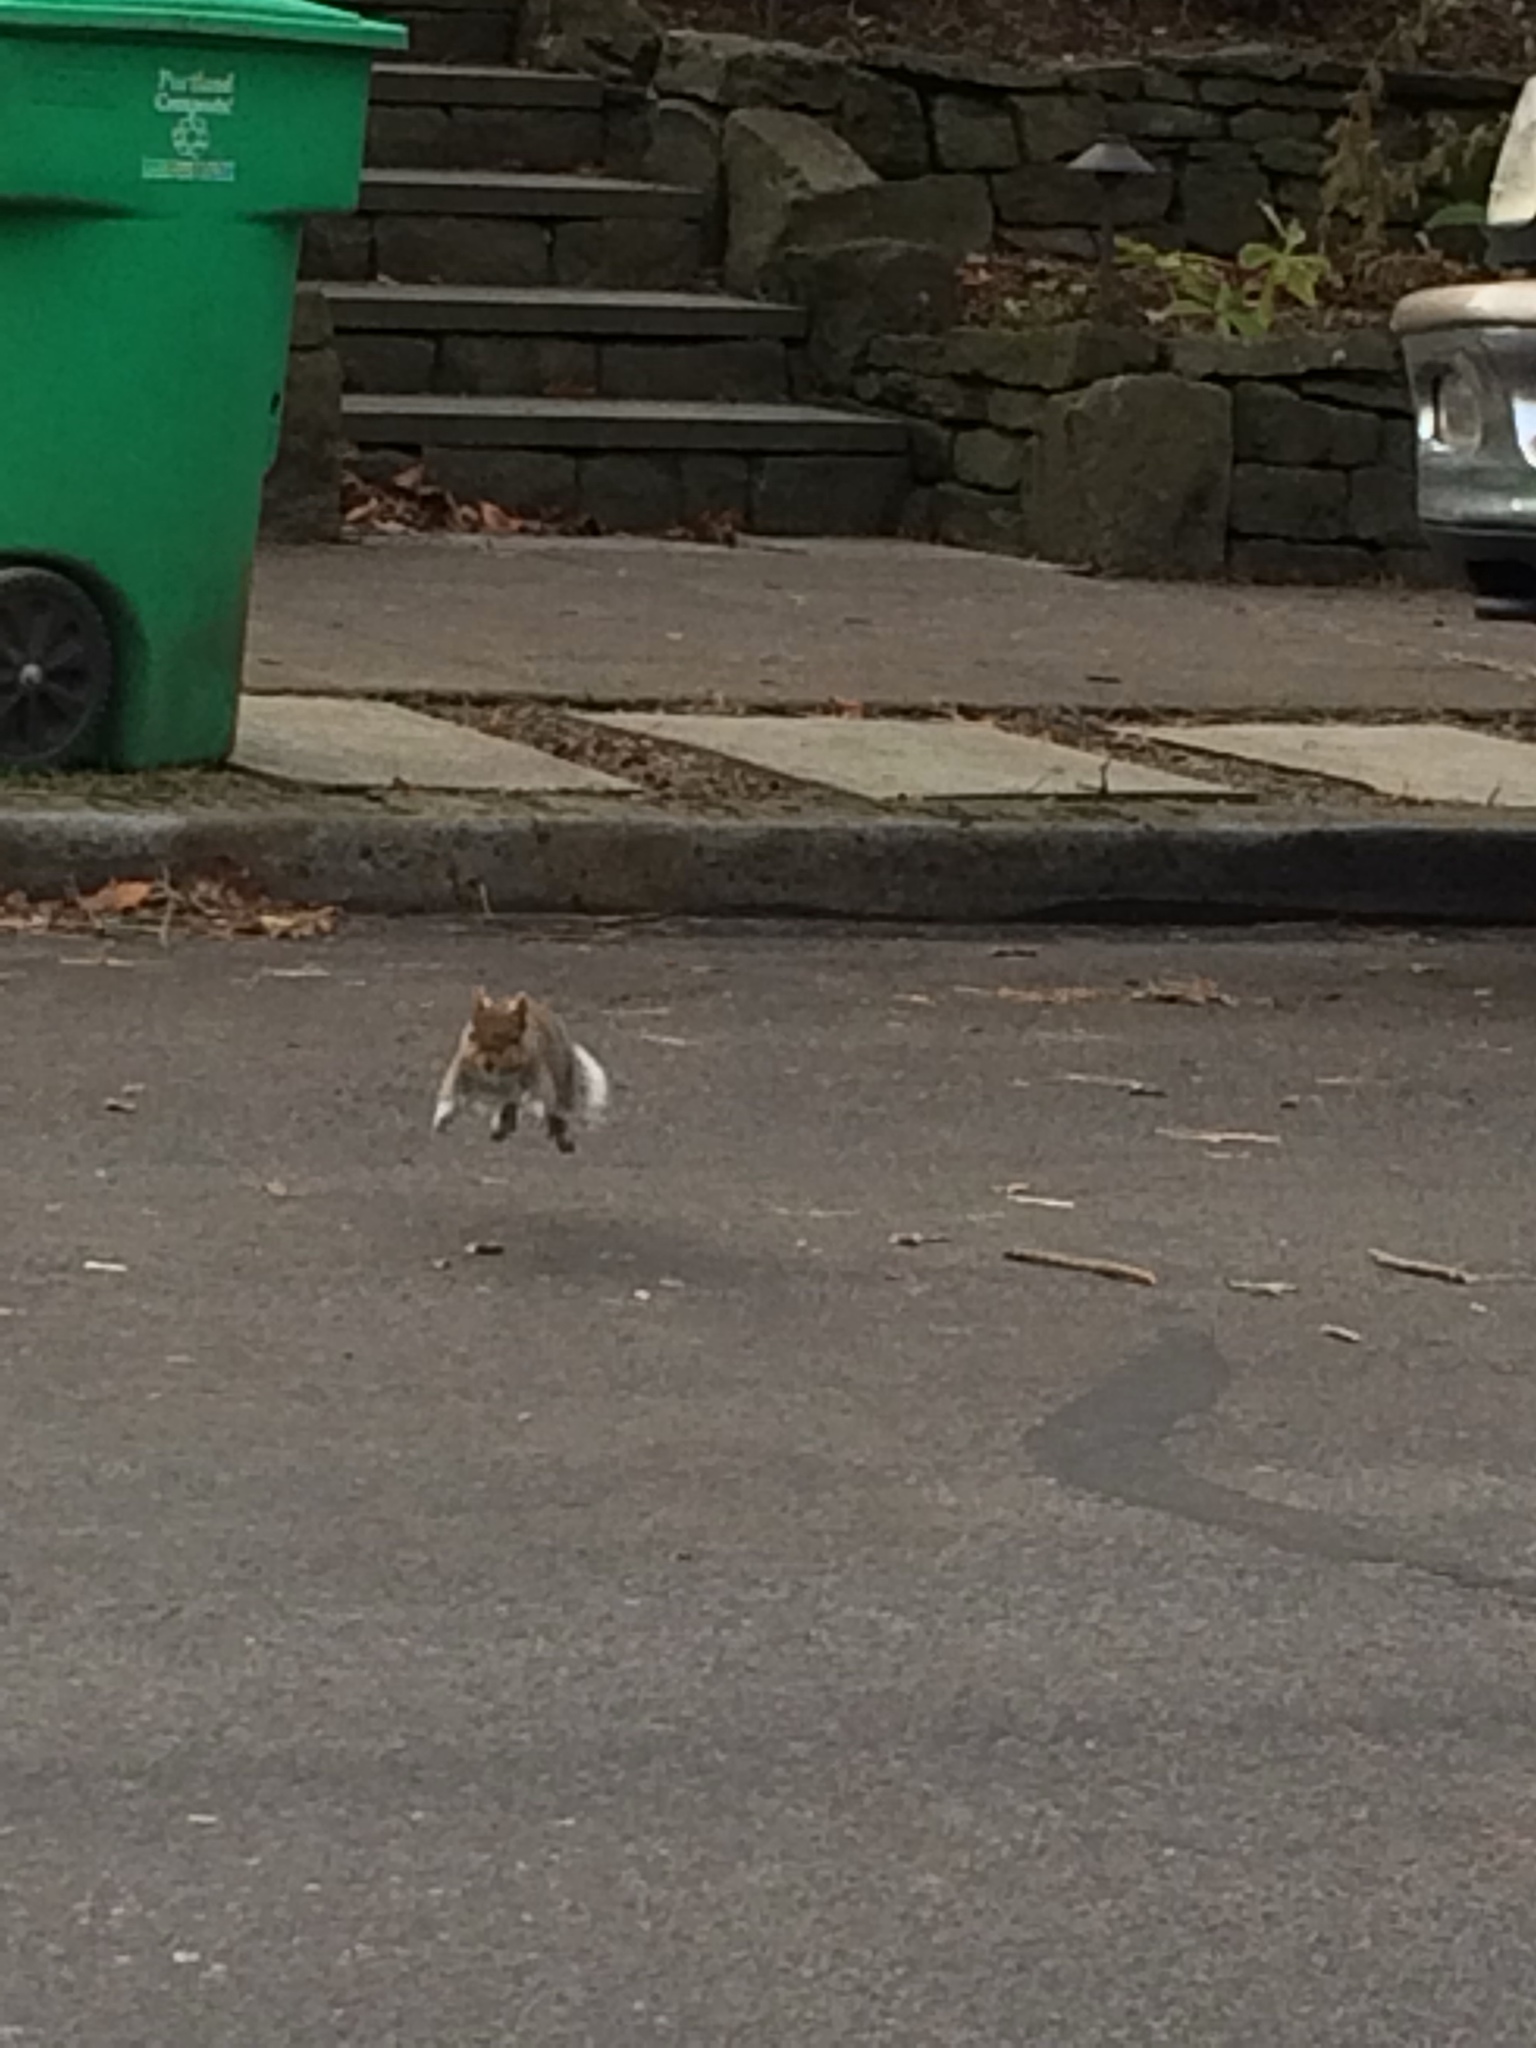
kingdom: Animalia
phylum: Chordata
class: Mammalia
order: Rodentia
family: Sciuridae
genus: Sciurus
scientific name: Sciurus carolinensis
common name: Eastern gray squirrel
